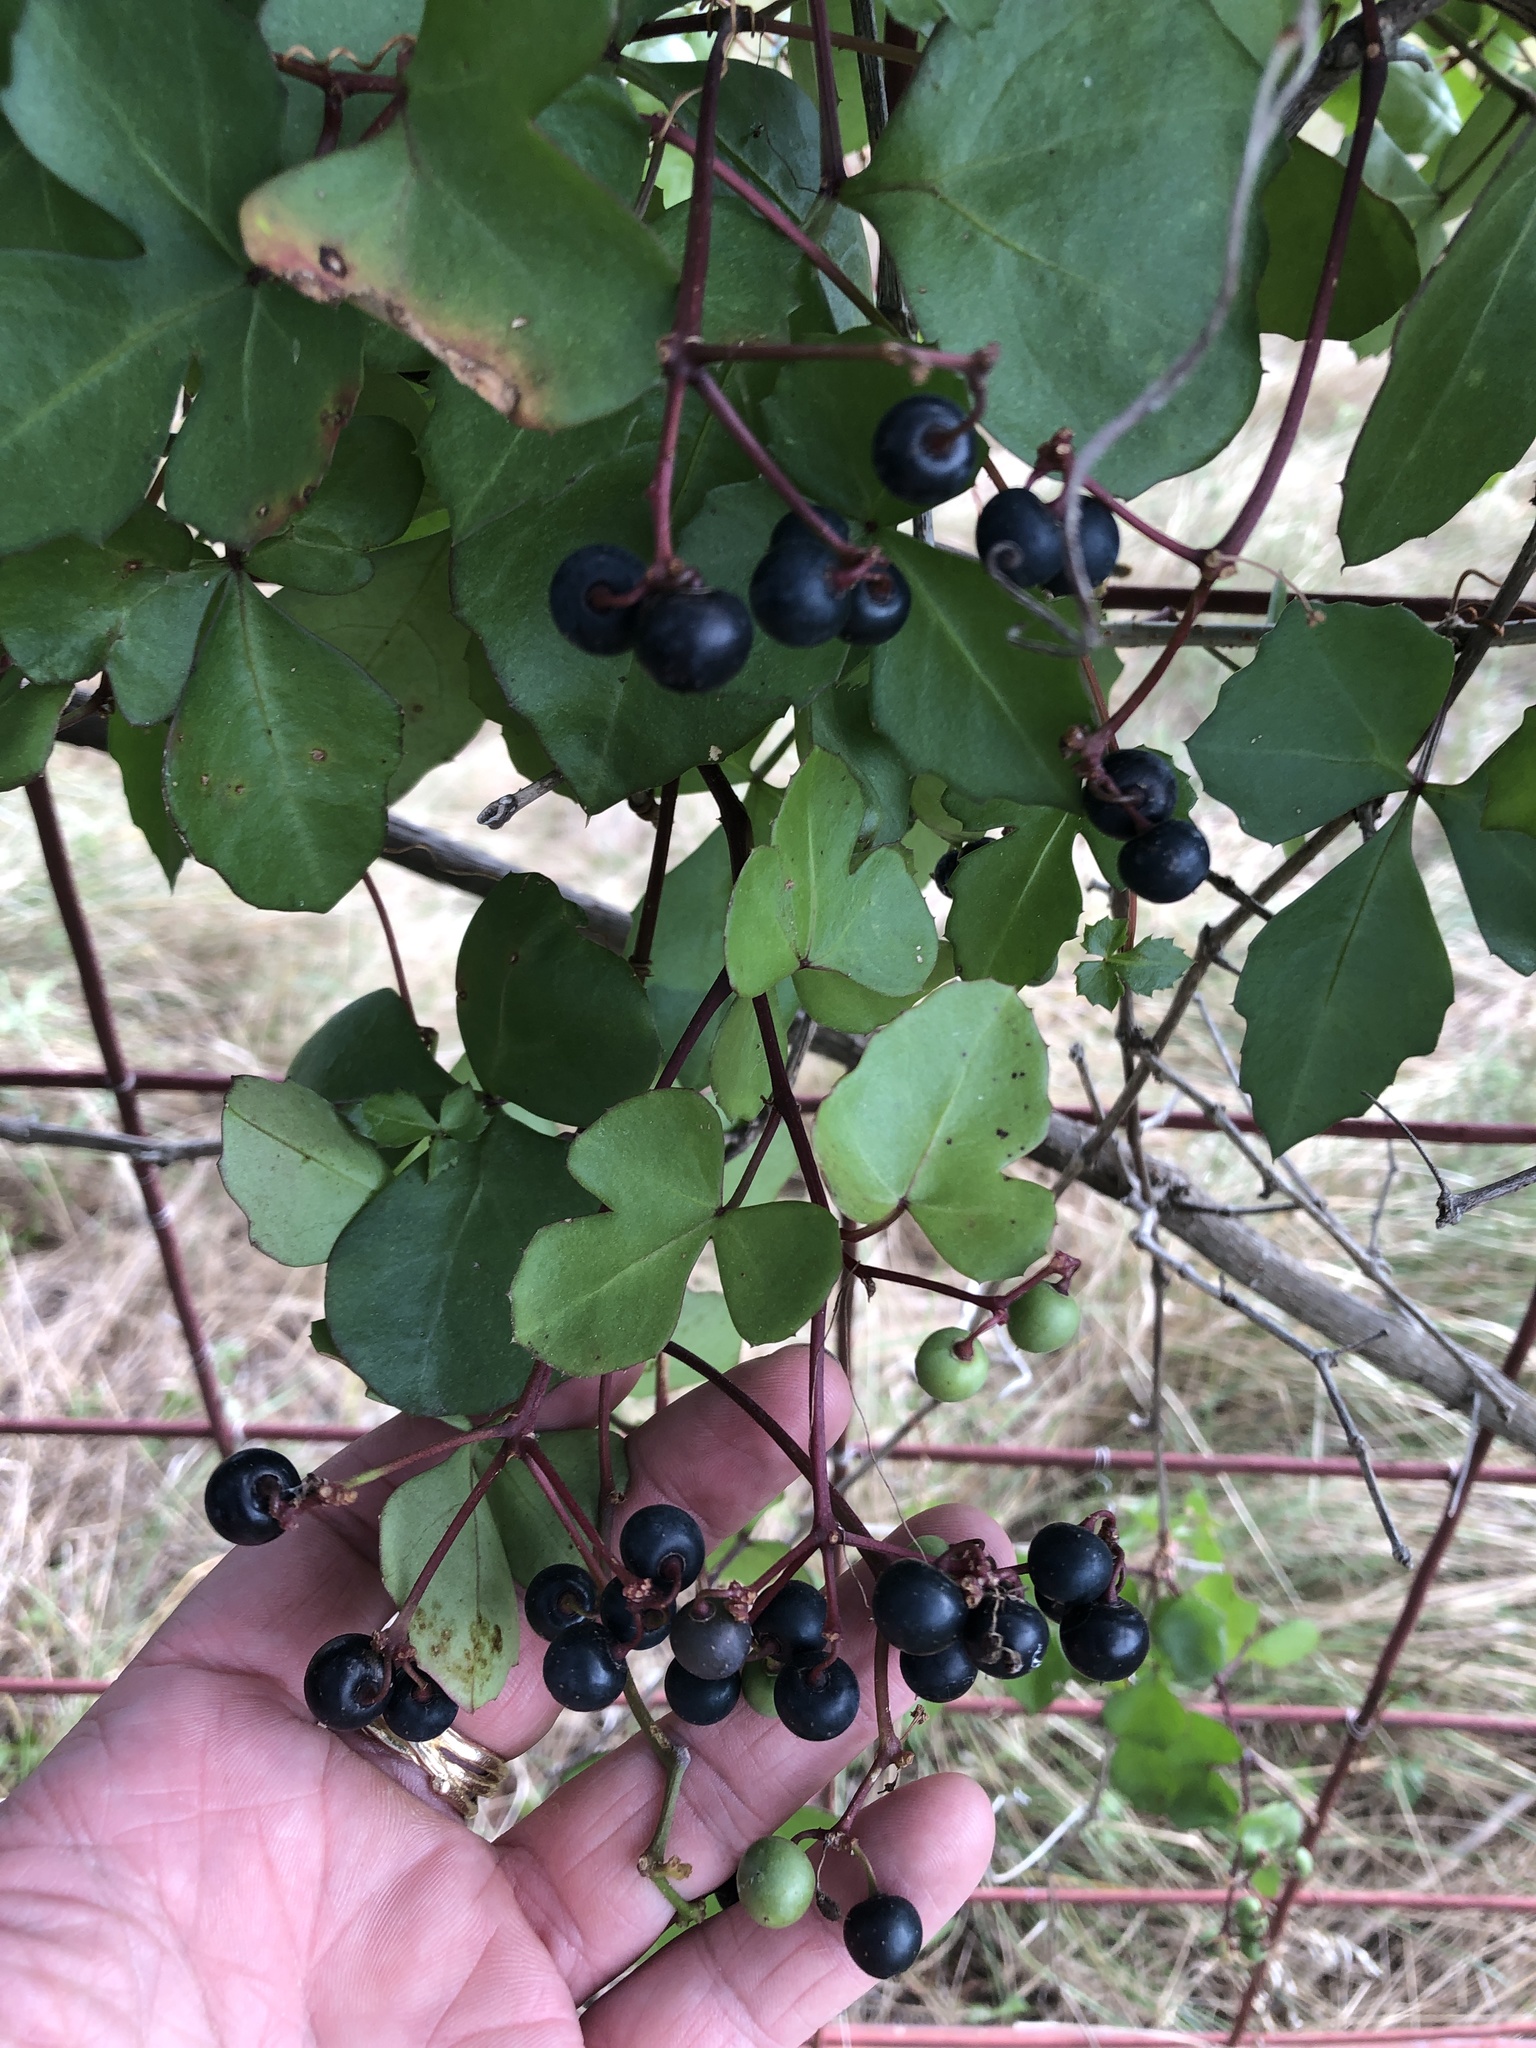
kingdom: Plantae
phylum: Tracheophyta
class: Magnoliopsida
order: Vitales
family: Vitaceae
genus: Cissus
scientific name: Cissus trifoliata
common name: Vine-sorrel
